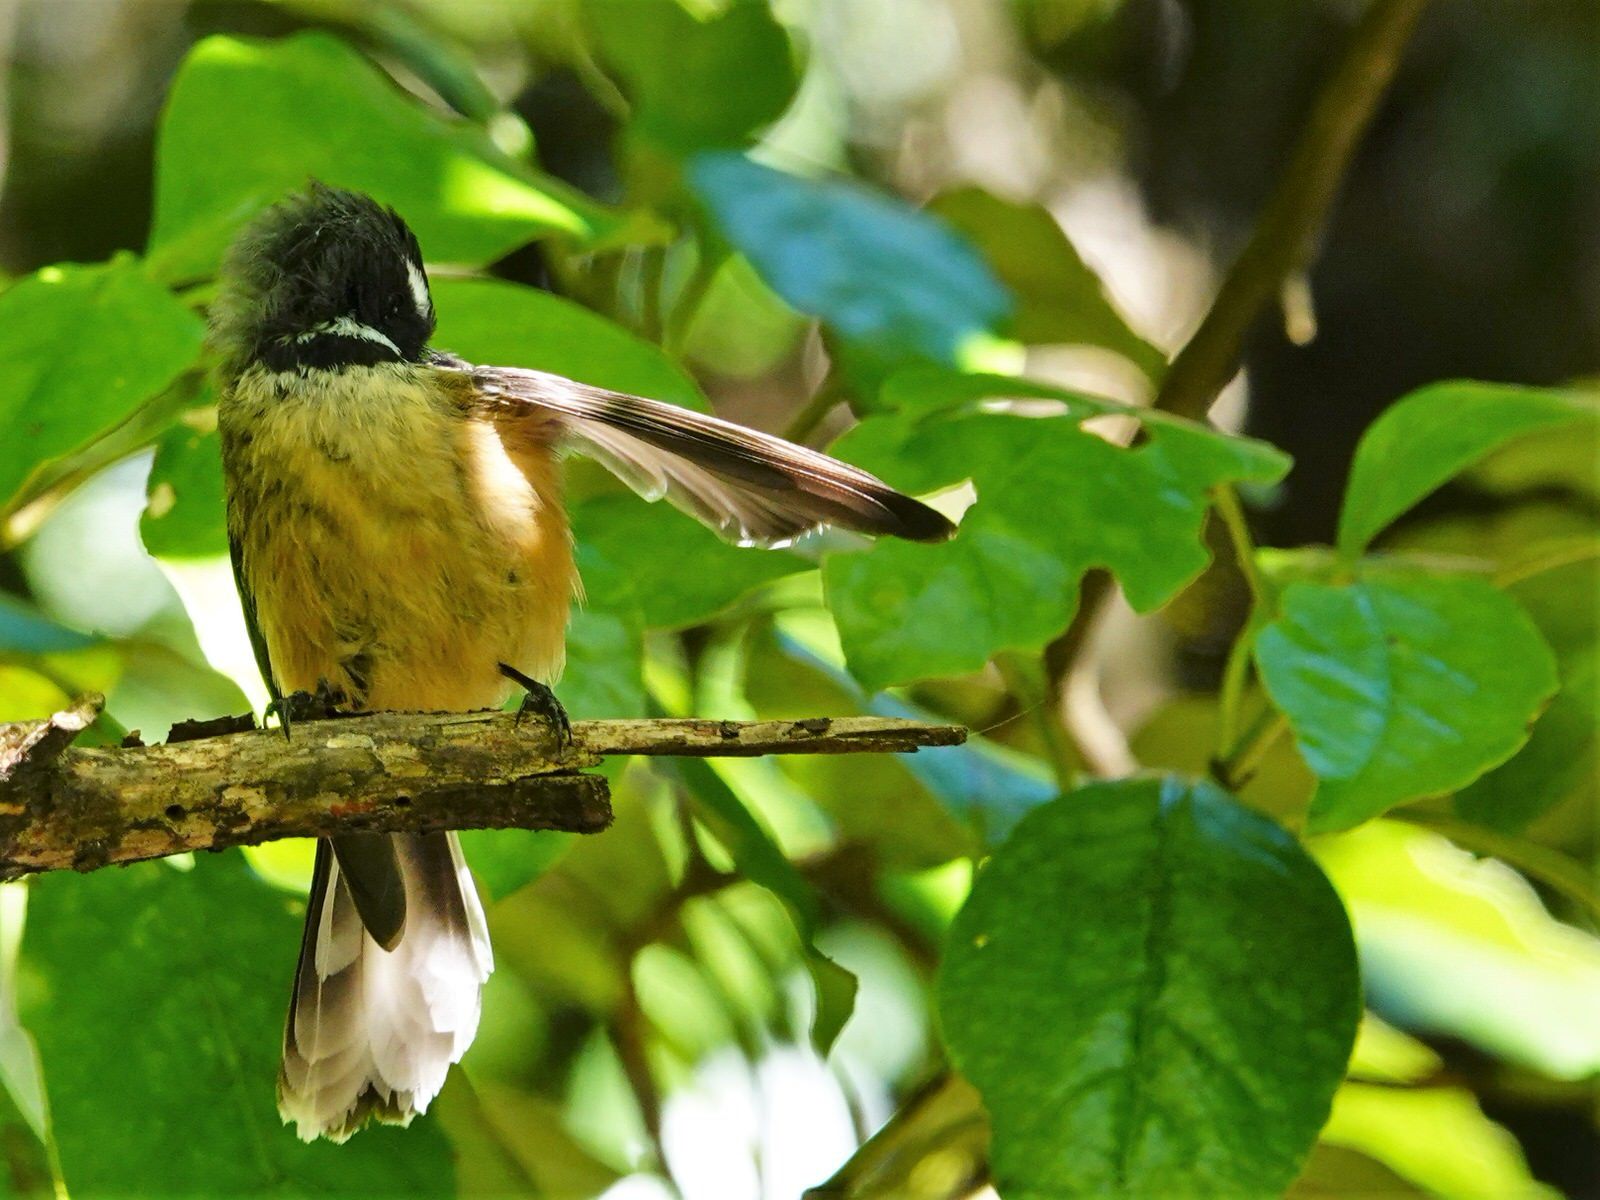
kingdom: Animalia
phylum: Chordata
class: Aves
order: Passeriformes
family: Rhipiduridae
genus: Rhipidura
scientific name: Rhipidura fuliginosa
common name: New zealand fantail
